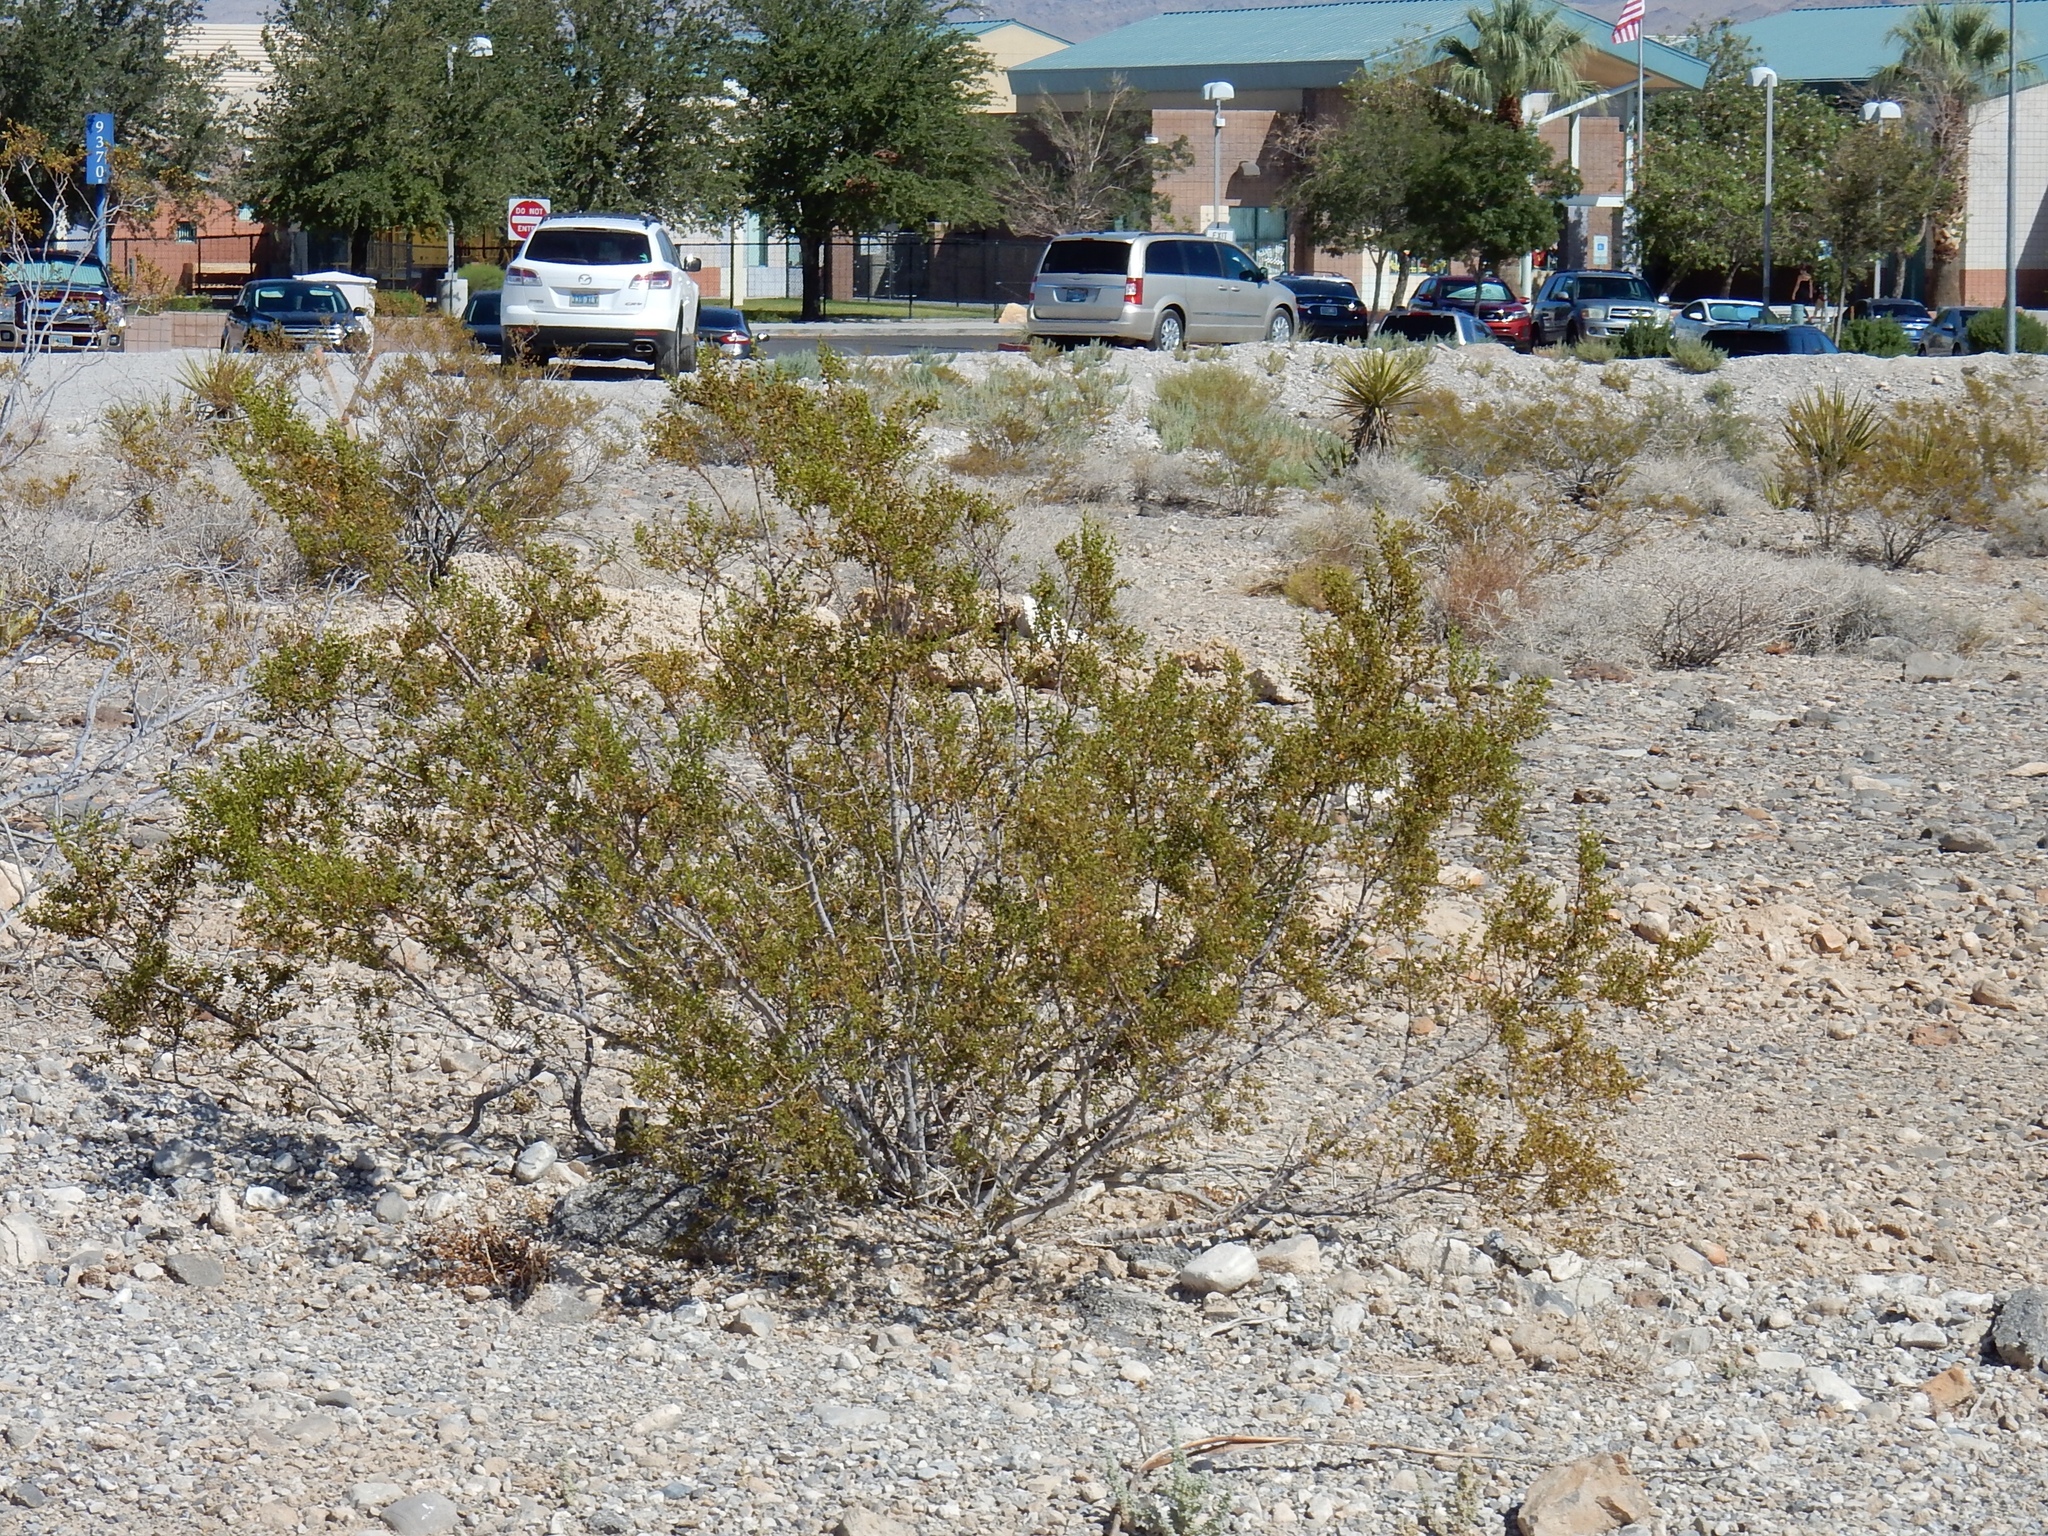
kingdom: Plantae
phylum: Tracheophyta
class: Magnoliopsida
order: Zygophyllales
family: Zygophyllaceae
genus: Larrea
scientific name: Larrea tridentata
